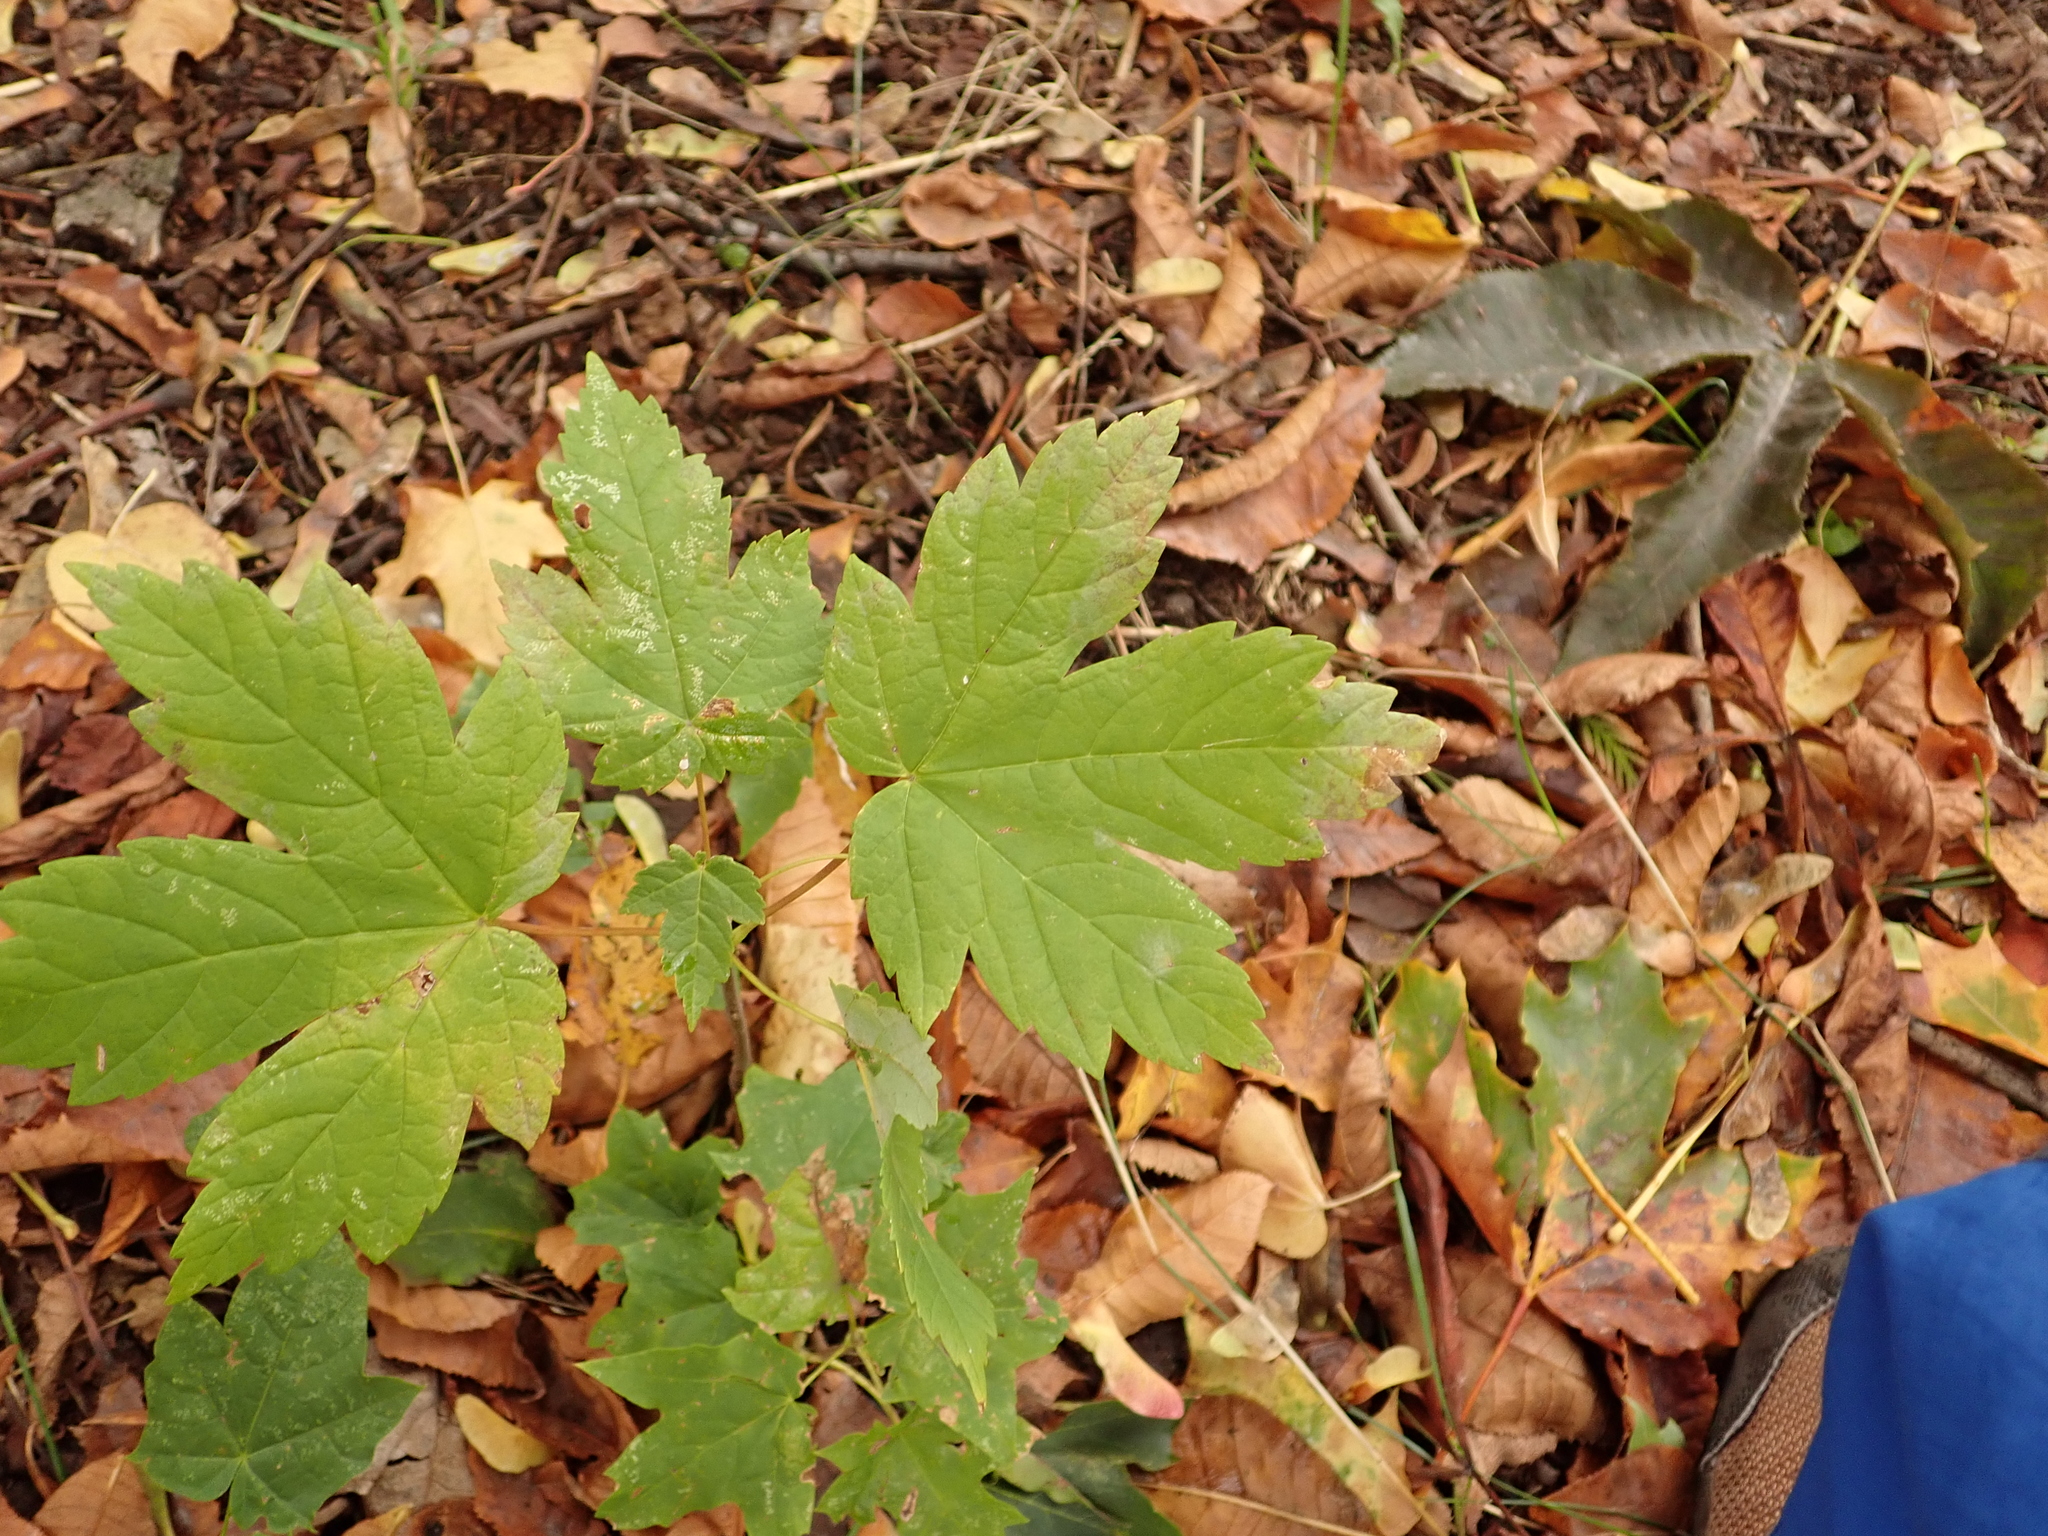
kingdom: Plantae
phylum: Tracheophyta
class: Magnoliopsida
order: Sapindales
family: Sapindaceae
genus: Acer
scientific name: Acer pseudoplatanus
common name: Sycamore
